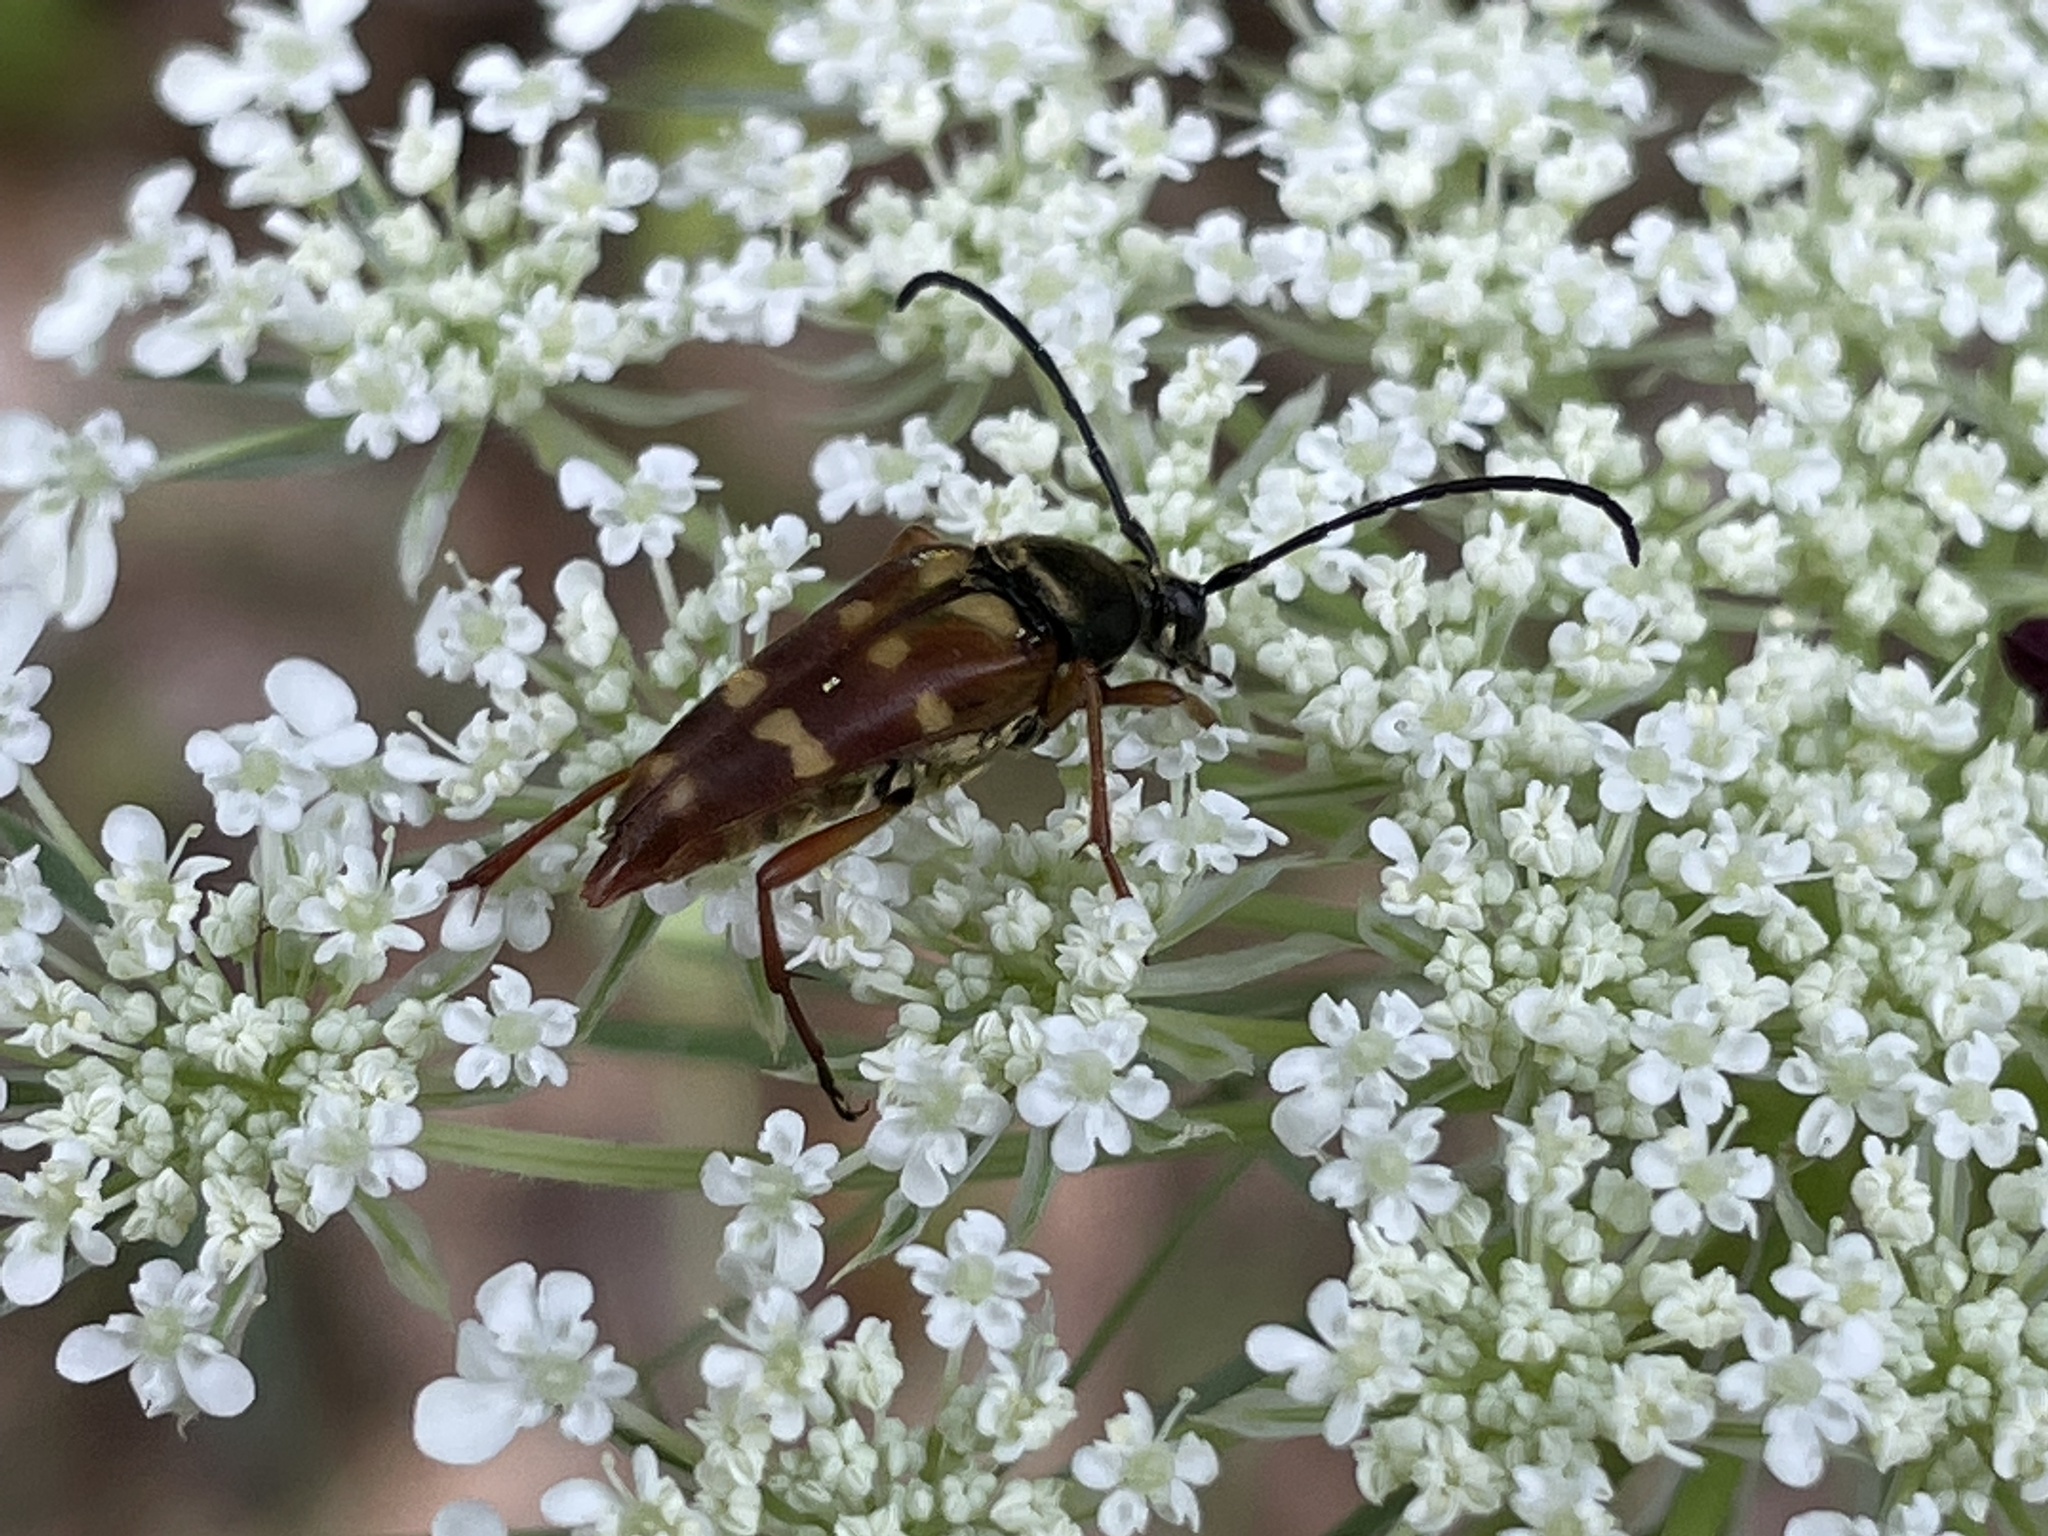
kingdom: Animalia
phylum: Arthropoda
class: Insecta
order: Coleoptera
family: Cerambycidae
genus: Typocerus
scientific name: Typocerus velutinus
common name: Banded longhorn beetle
